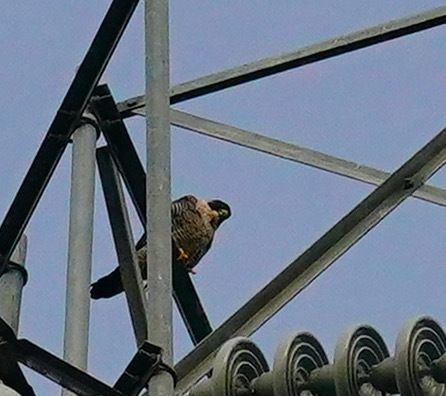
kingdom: Animalia
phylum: Chordata
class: Aves
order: Falconiformes
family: Falconidae
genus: Falco
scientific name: Falco peregrinus
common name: Peregrine falcon
